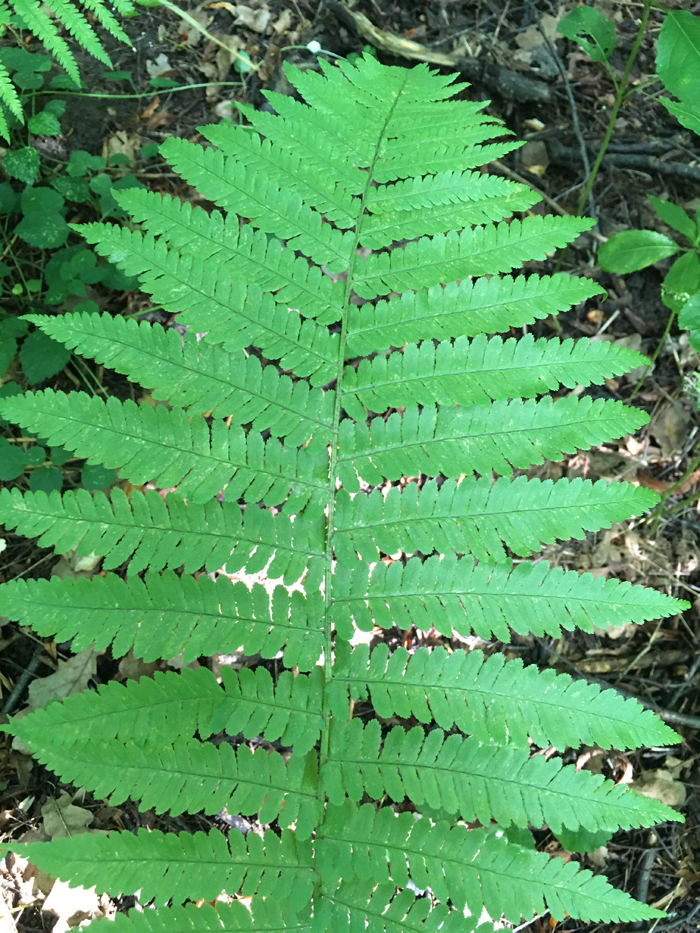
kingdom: Plantae
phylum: Tracheophyta
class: Polypodiopsida
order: Polypodiales
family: Dryopteridaceae
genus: Dryopteris
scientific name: Dryopteris filix-mas
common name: Male fern
